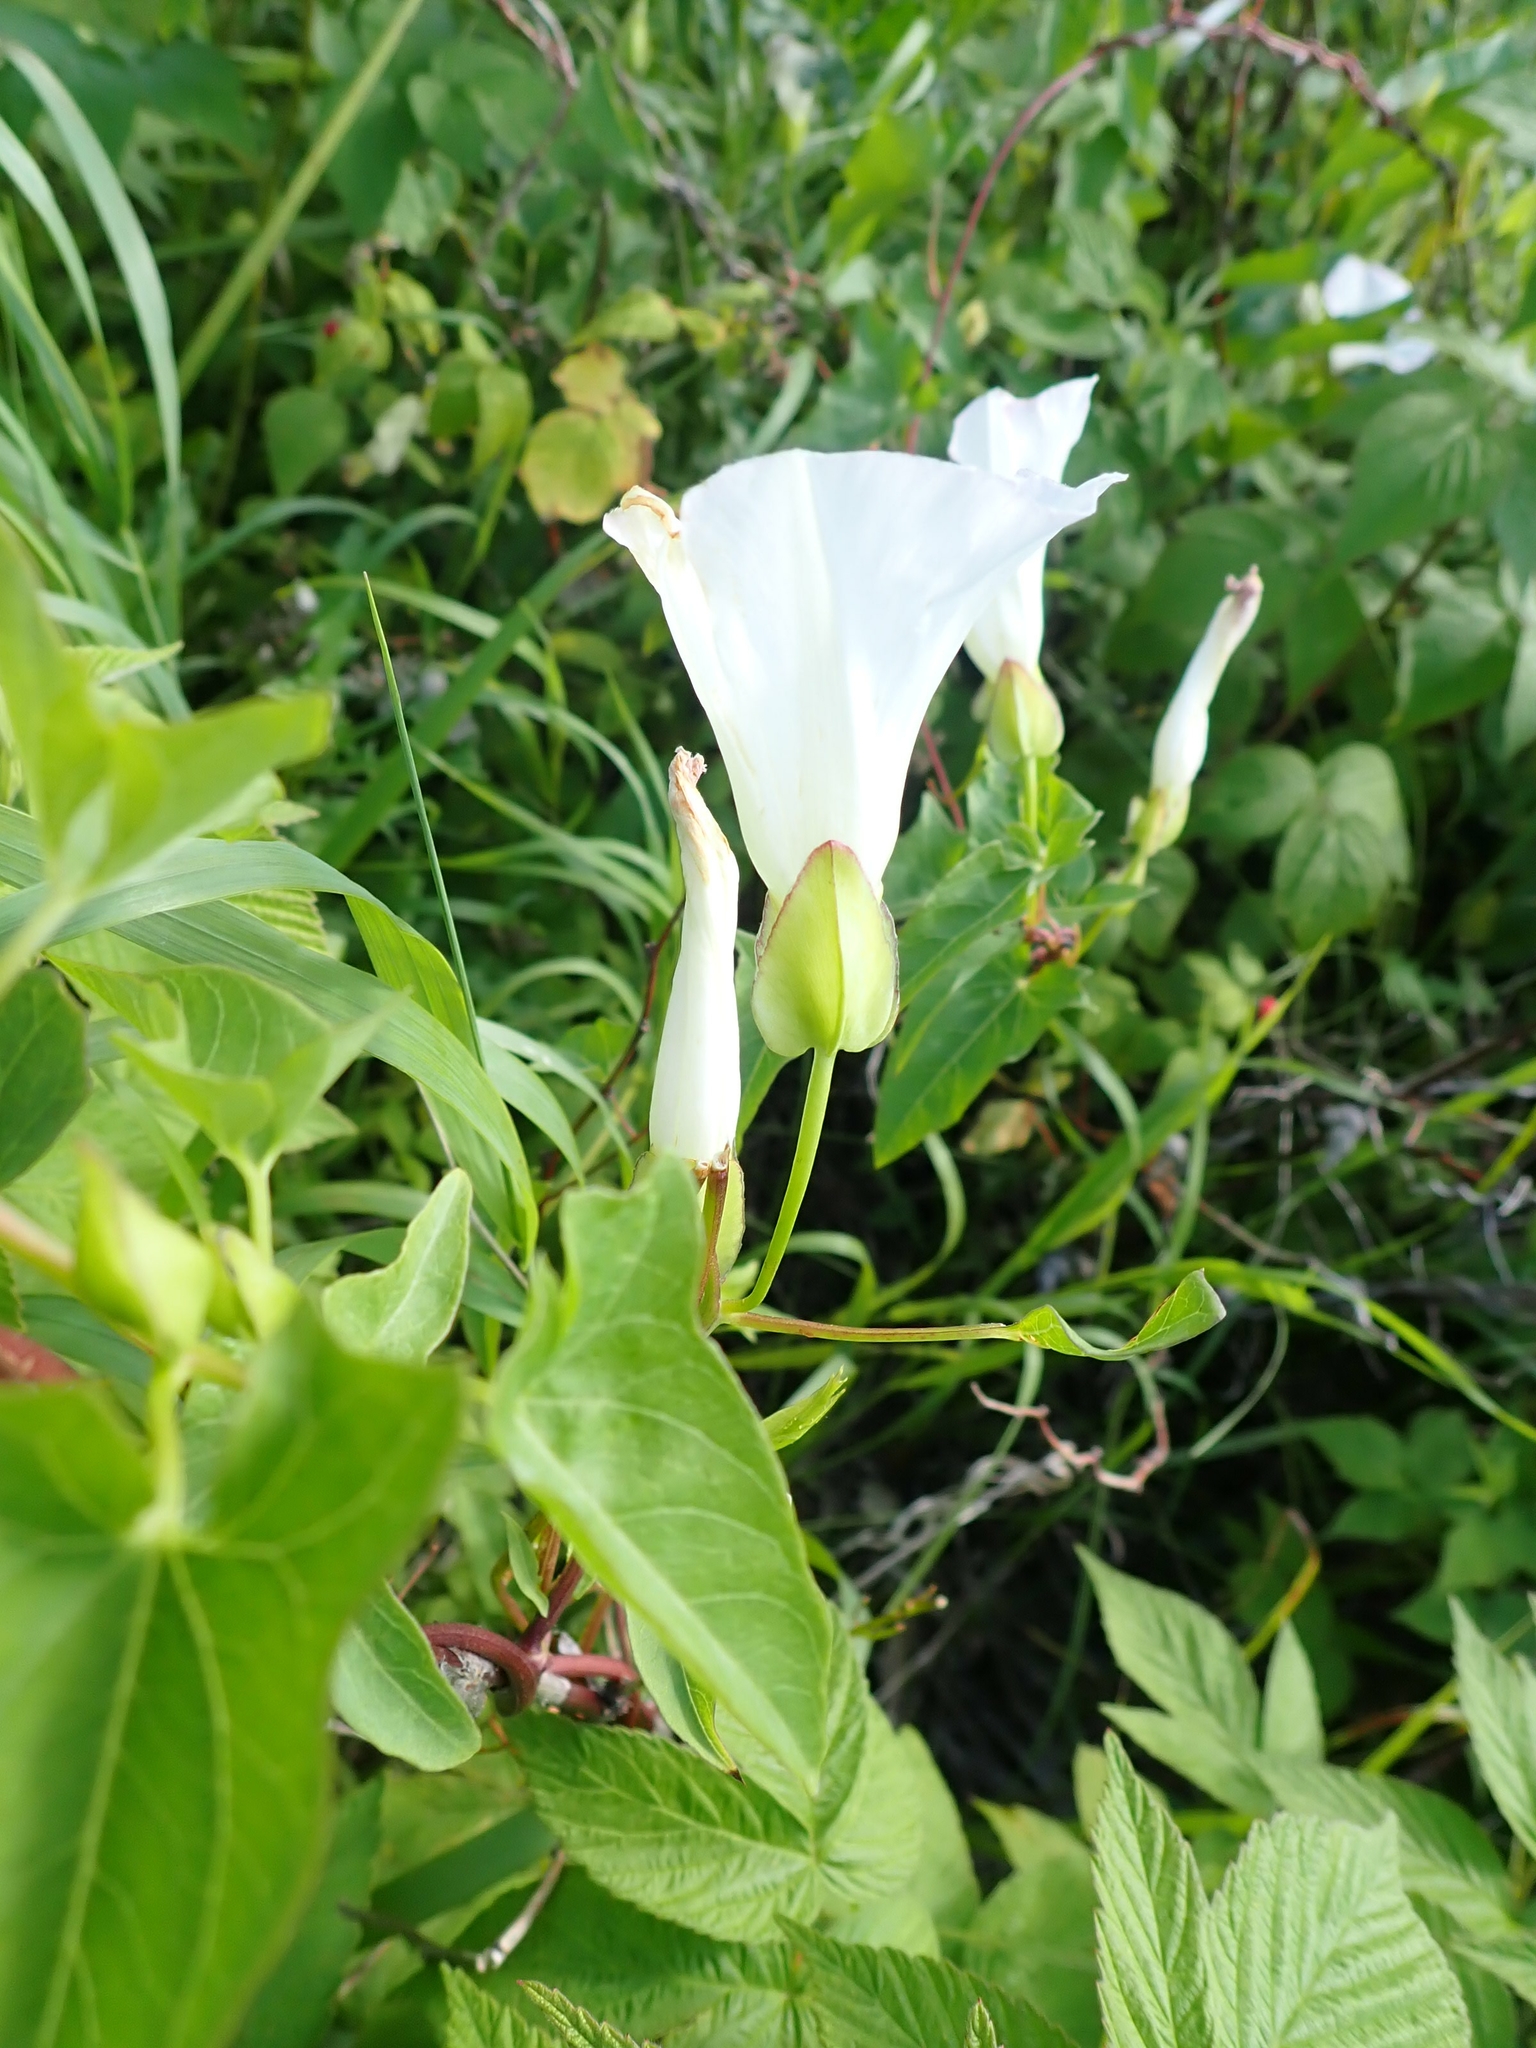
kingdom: Plantae
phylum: Tracheophyta
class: Magnoliopsida
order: Solanales
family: Convolvulaceae
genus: Calystegia
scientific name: Calystegia sepium
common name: Hedge bindweed
